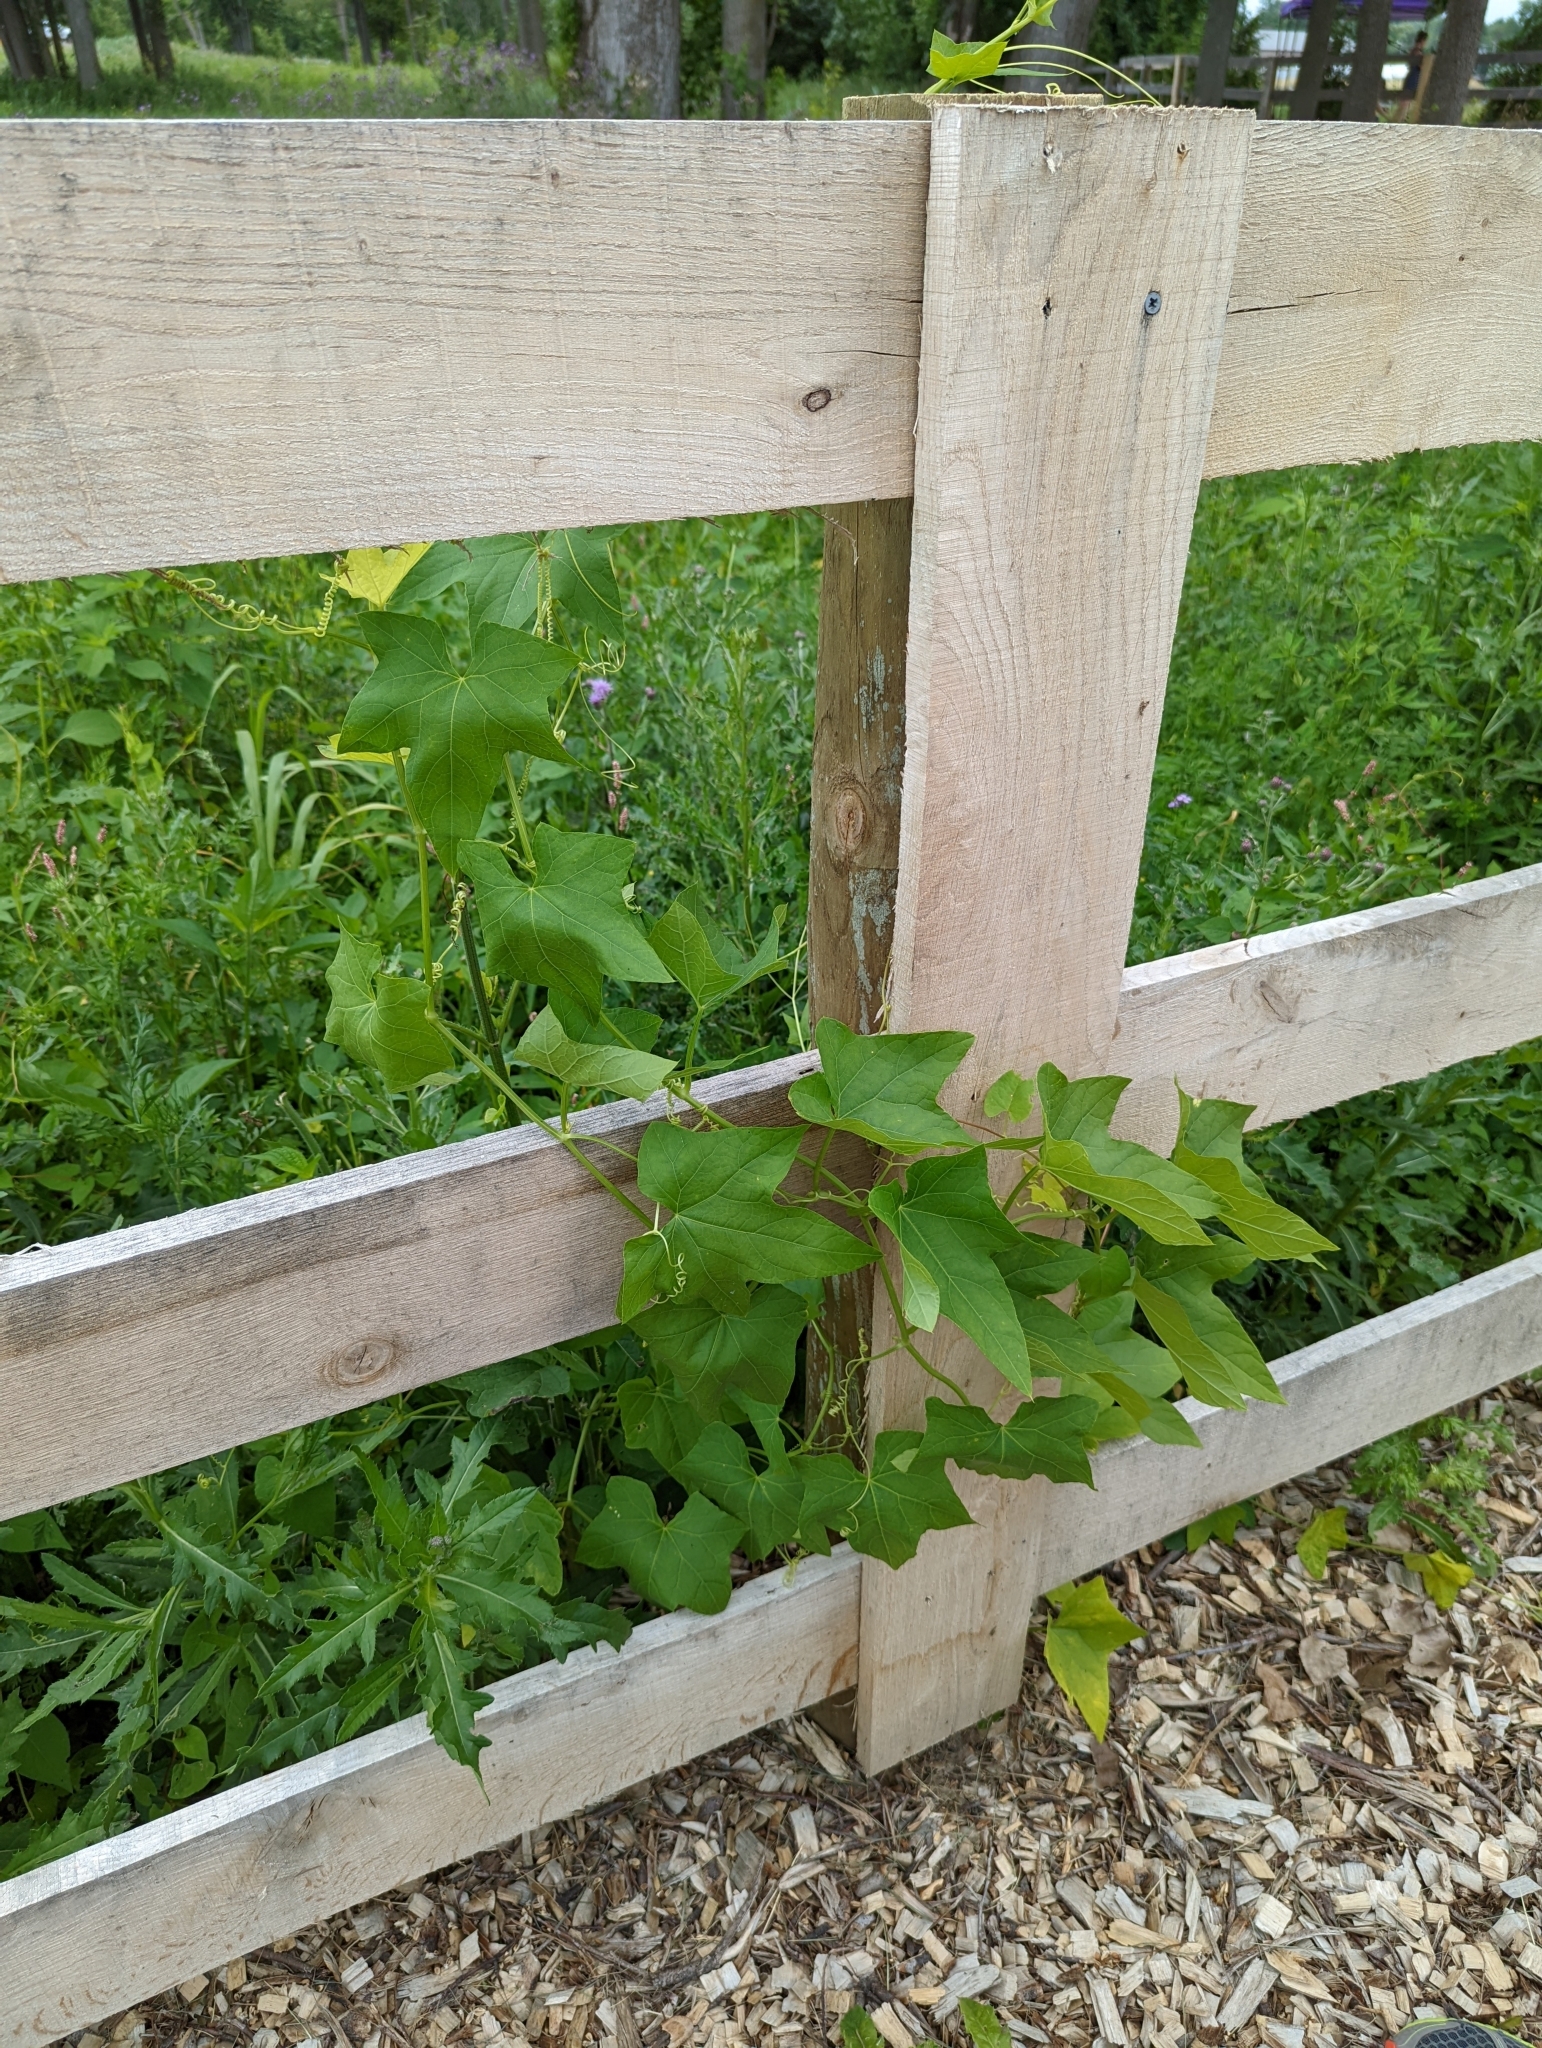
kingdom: Plantae
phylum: Tracheophyta
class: Magnoliopsida
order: Cucurbitales
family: Cucurbitaceae
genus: Echinocystis
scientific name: Echinocystis lobata
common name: Wild cucumber
